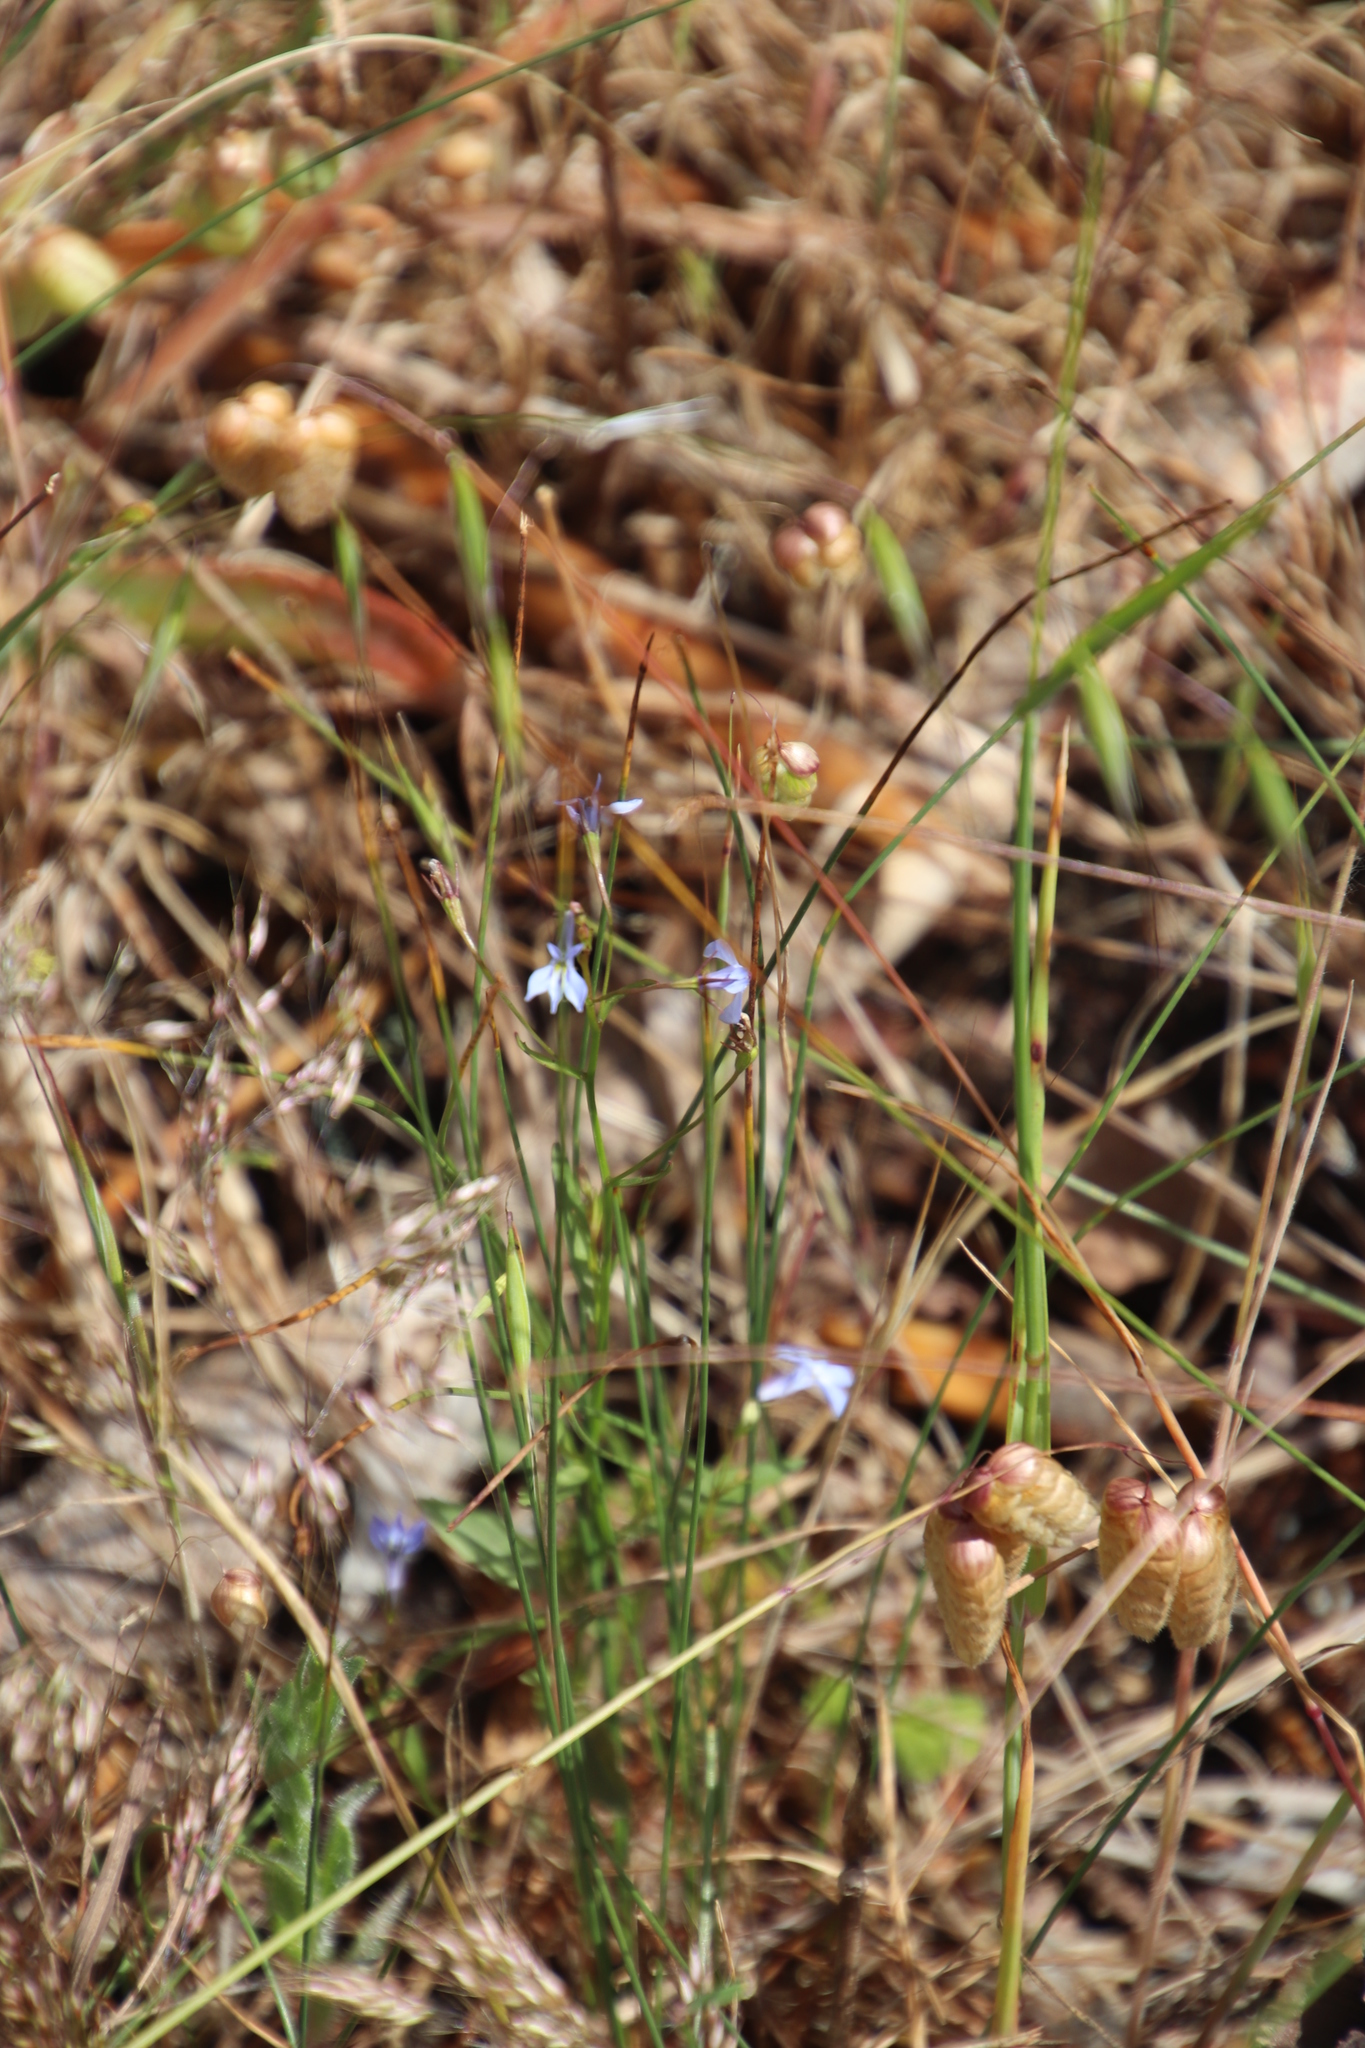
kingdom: Plantae
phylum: Tracheophyta
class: Magnoliopsida
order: Asterales
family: Campanulaceae
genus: Lobelia
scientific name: Lobelia erinus
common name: Edging lobelia
